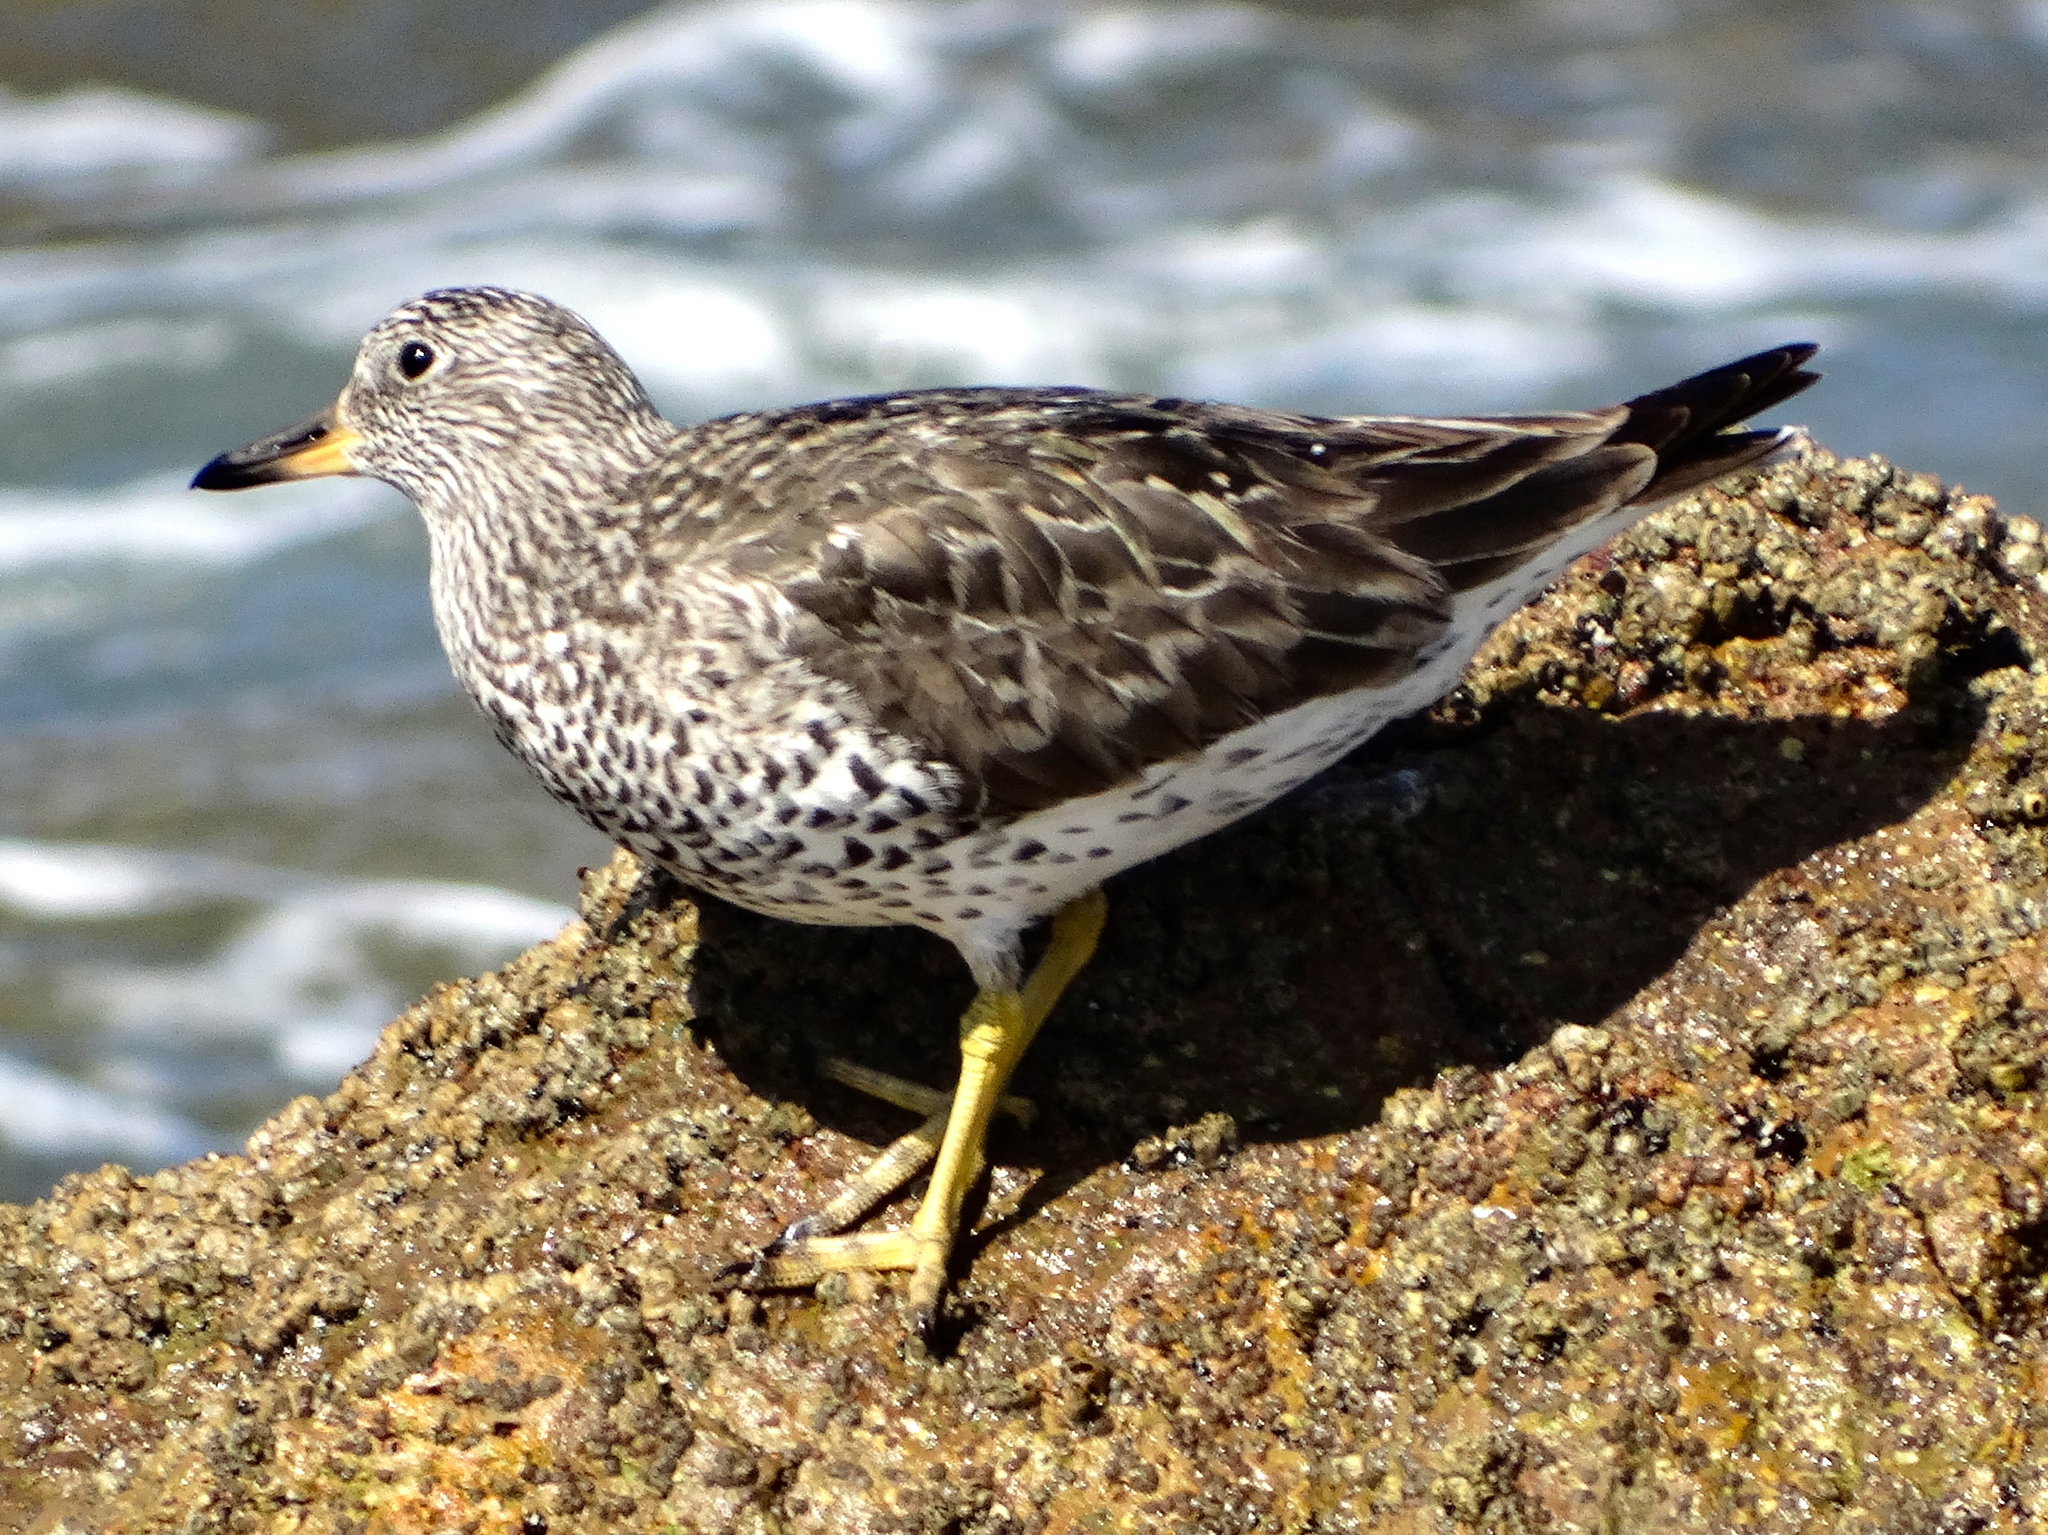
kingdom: Animalia
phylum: Chordata
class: Aves
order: Charadriiformes
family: Scolopacidae
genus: Calidris
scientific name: Calidris virgata
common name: Surfbird
